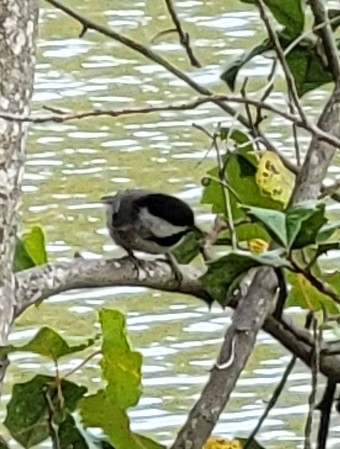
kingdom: Animalia
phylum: Chordata
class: Aves
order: Passeriformes
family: Paridae
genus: Poecile
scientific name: Poecile carolinensis
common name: Carolina chickadee
